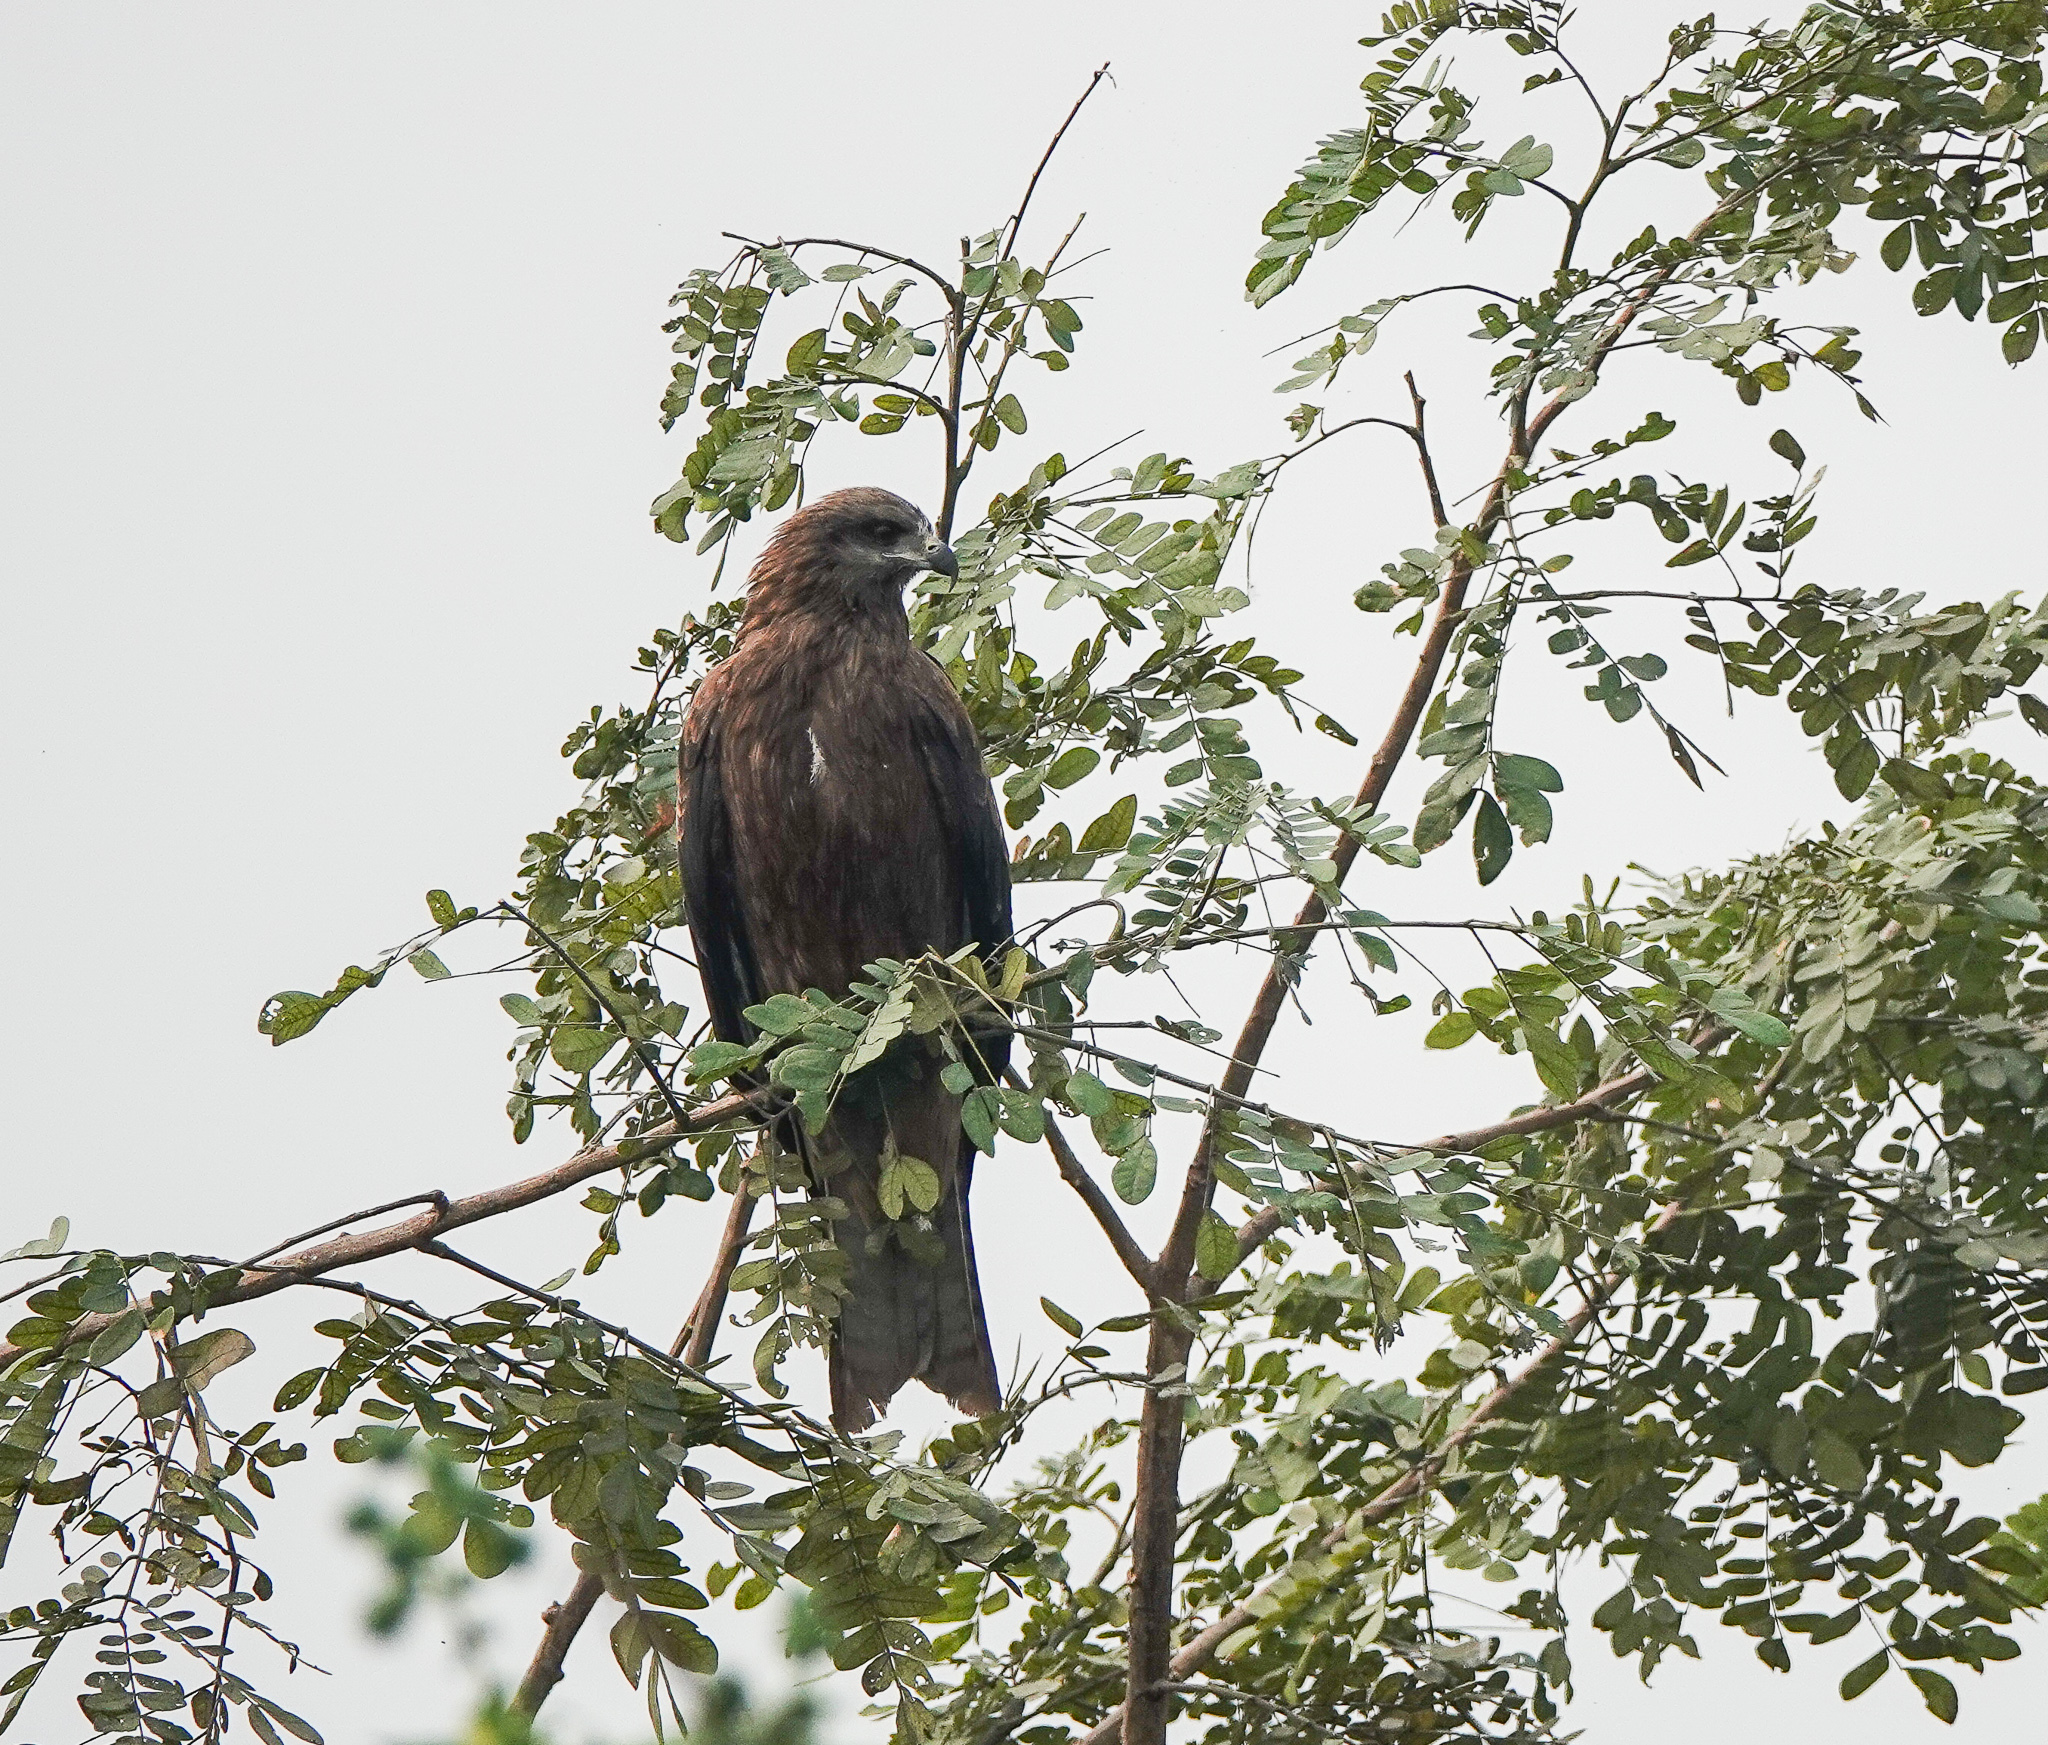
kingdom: Animalia
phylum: Chordata
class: Aves
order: Accipitriformes
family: Accipitridae
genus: Milvus
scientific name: Milvus migrans
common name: Black kite
